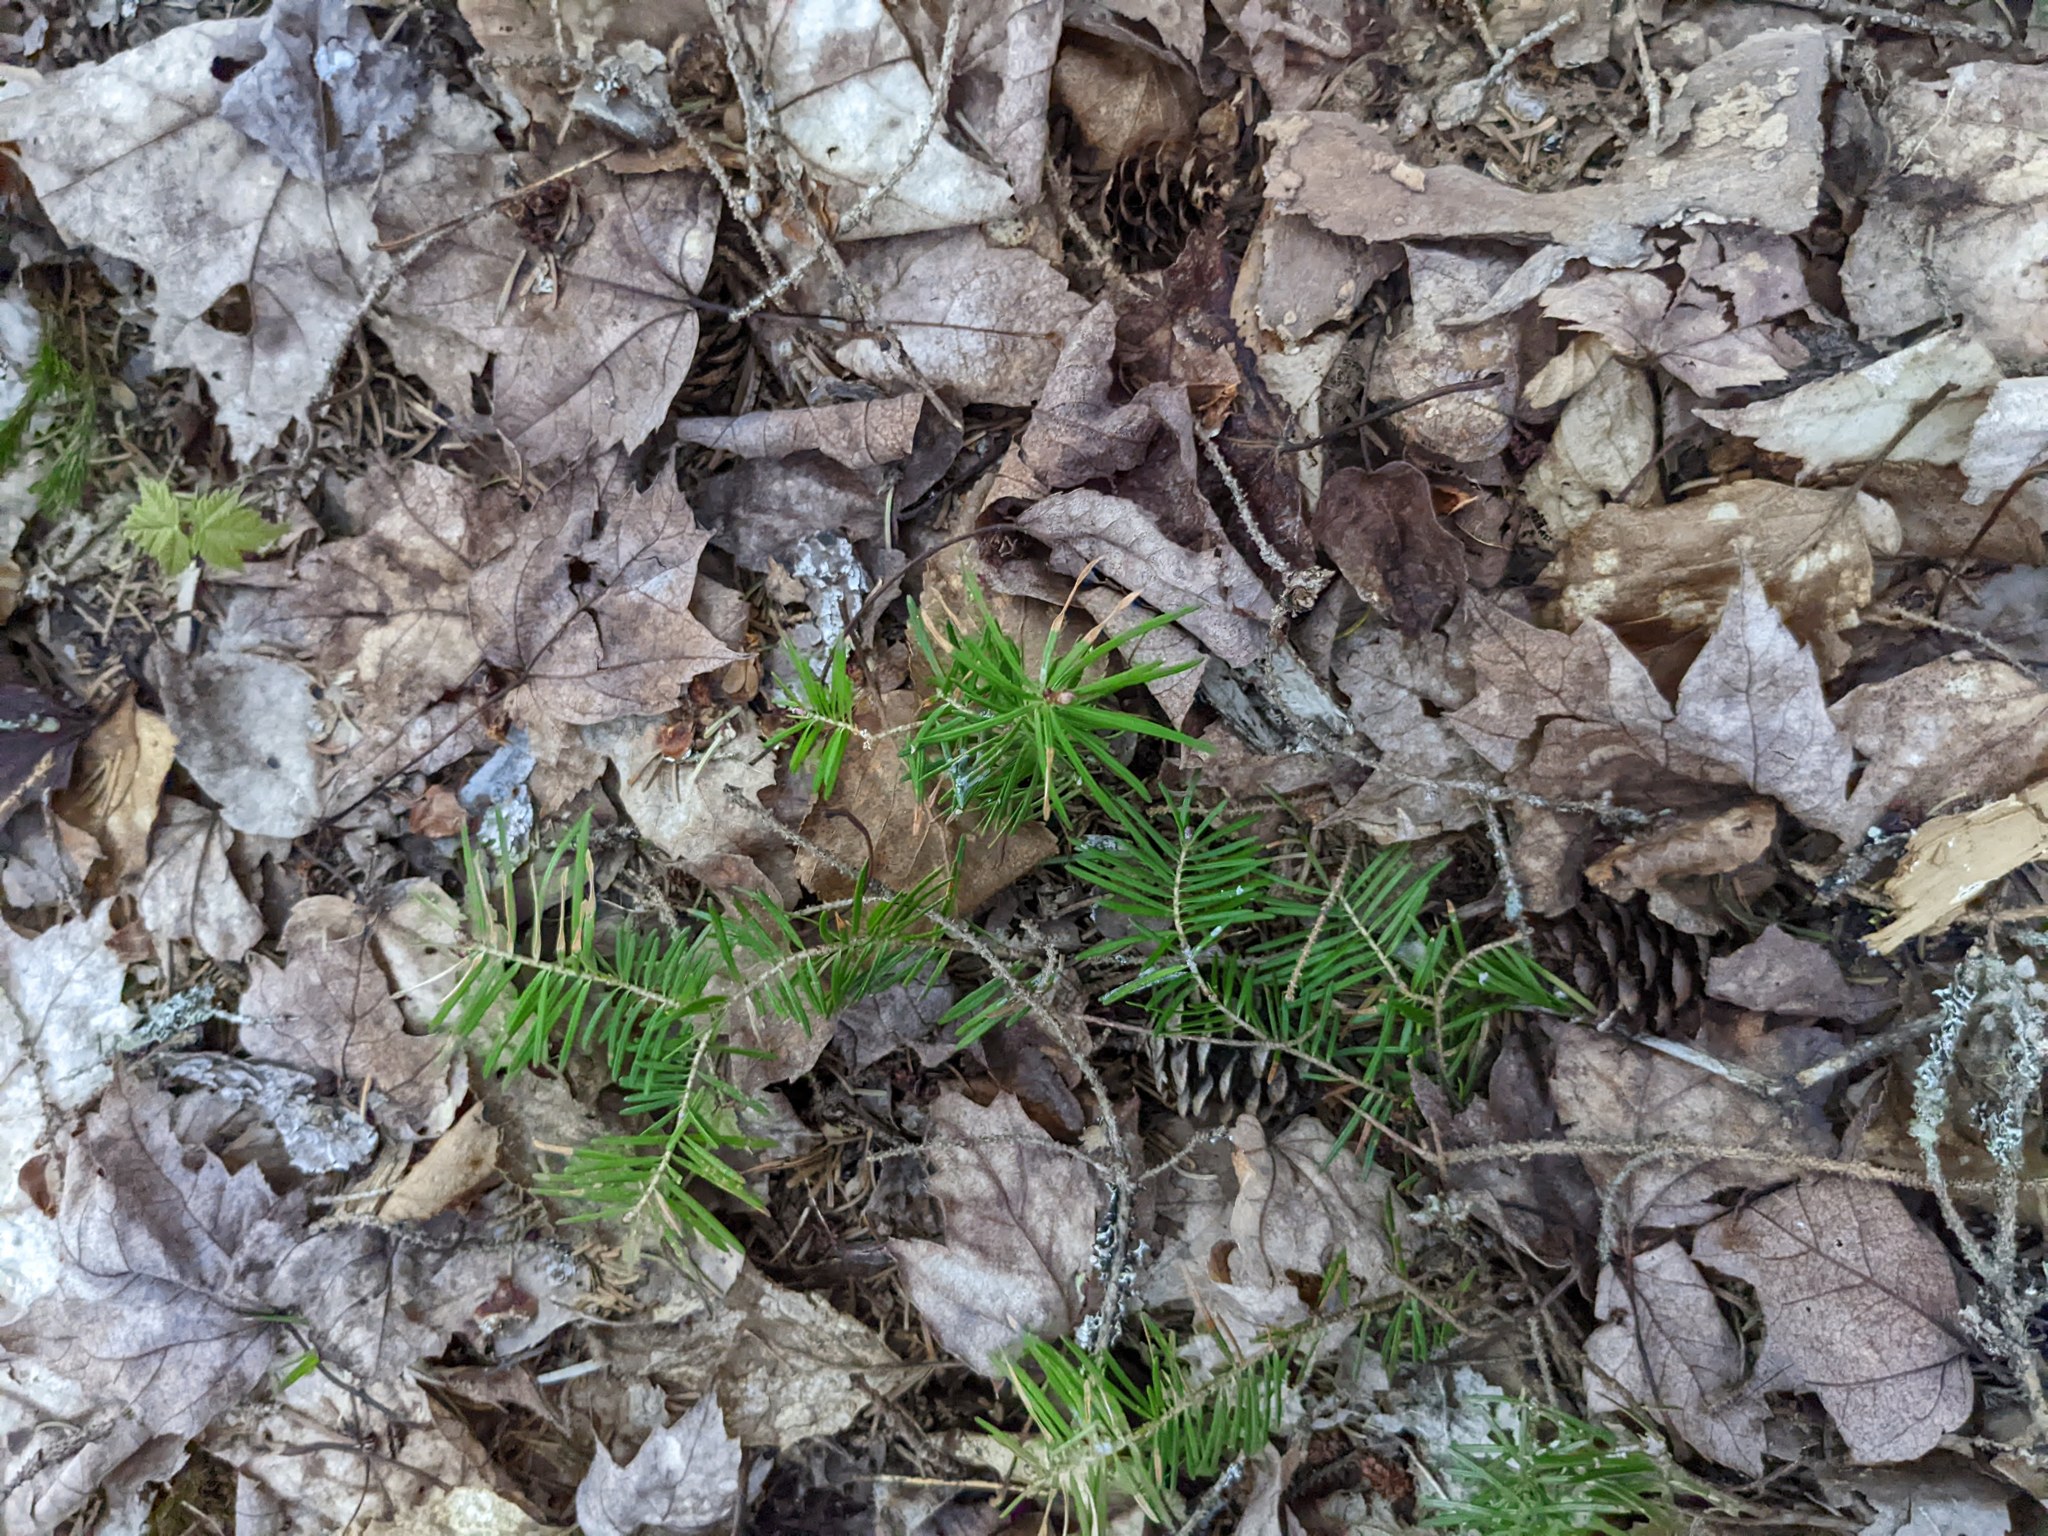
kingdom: Plantae
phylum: Tracheophyta
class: Pinopsida
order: Pinales
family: Pinaceae
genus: Abies
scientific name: Abies balsamea
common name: Balsam fir
